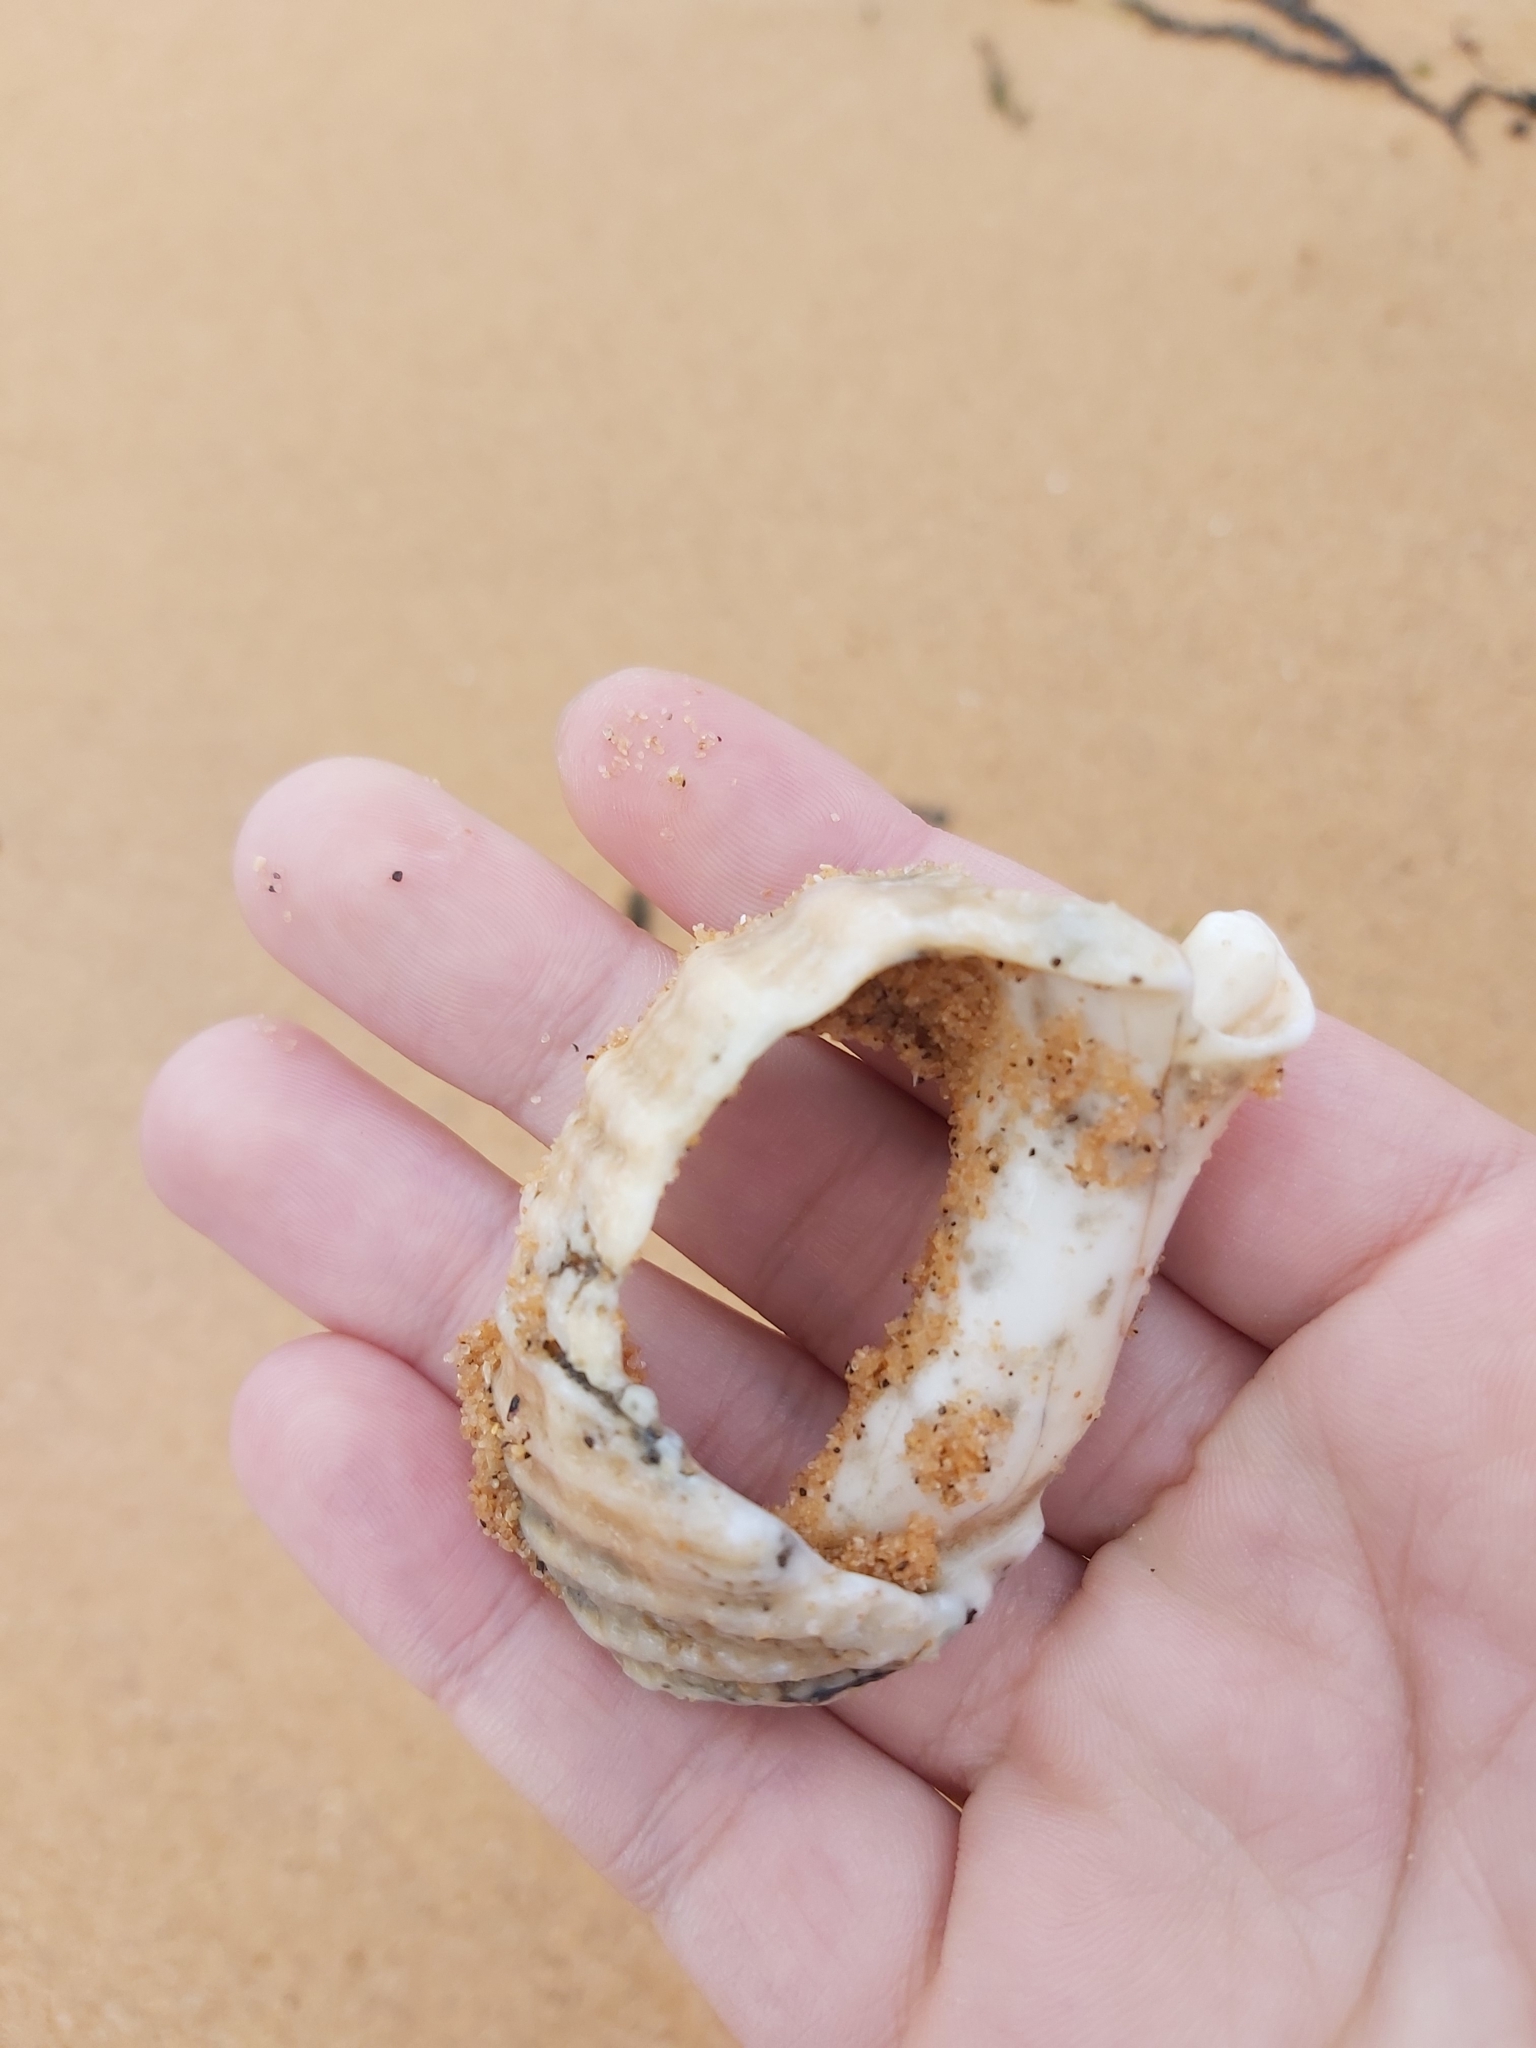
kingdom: Animalia
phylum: Mollusca
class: Gastropoda
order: Neogastropoda
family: Muricidae
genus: Dicathais
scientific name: Dicathais orbita
